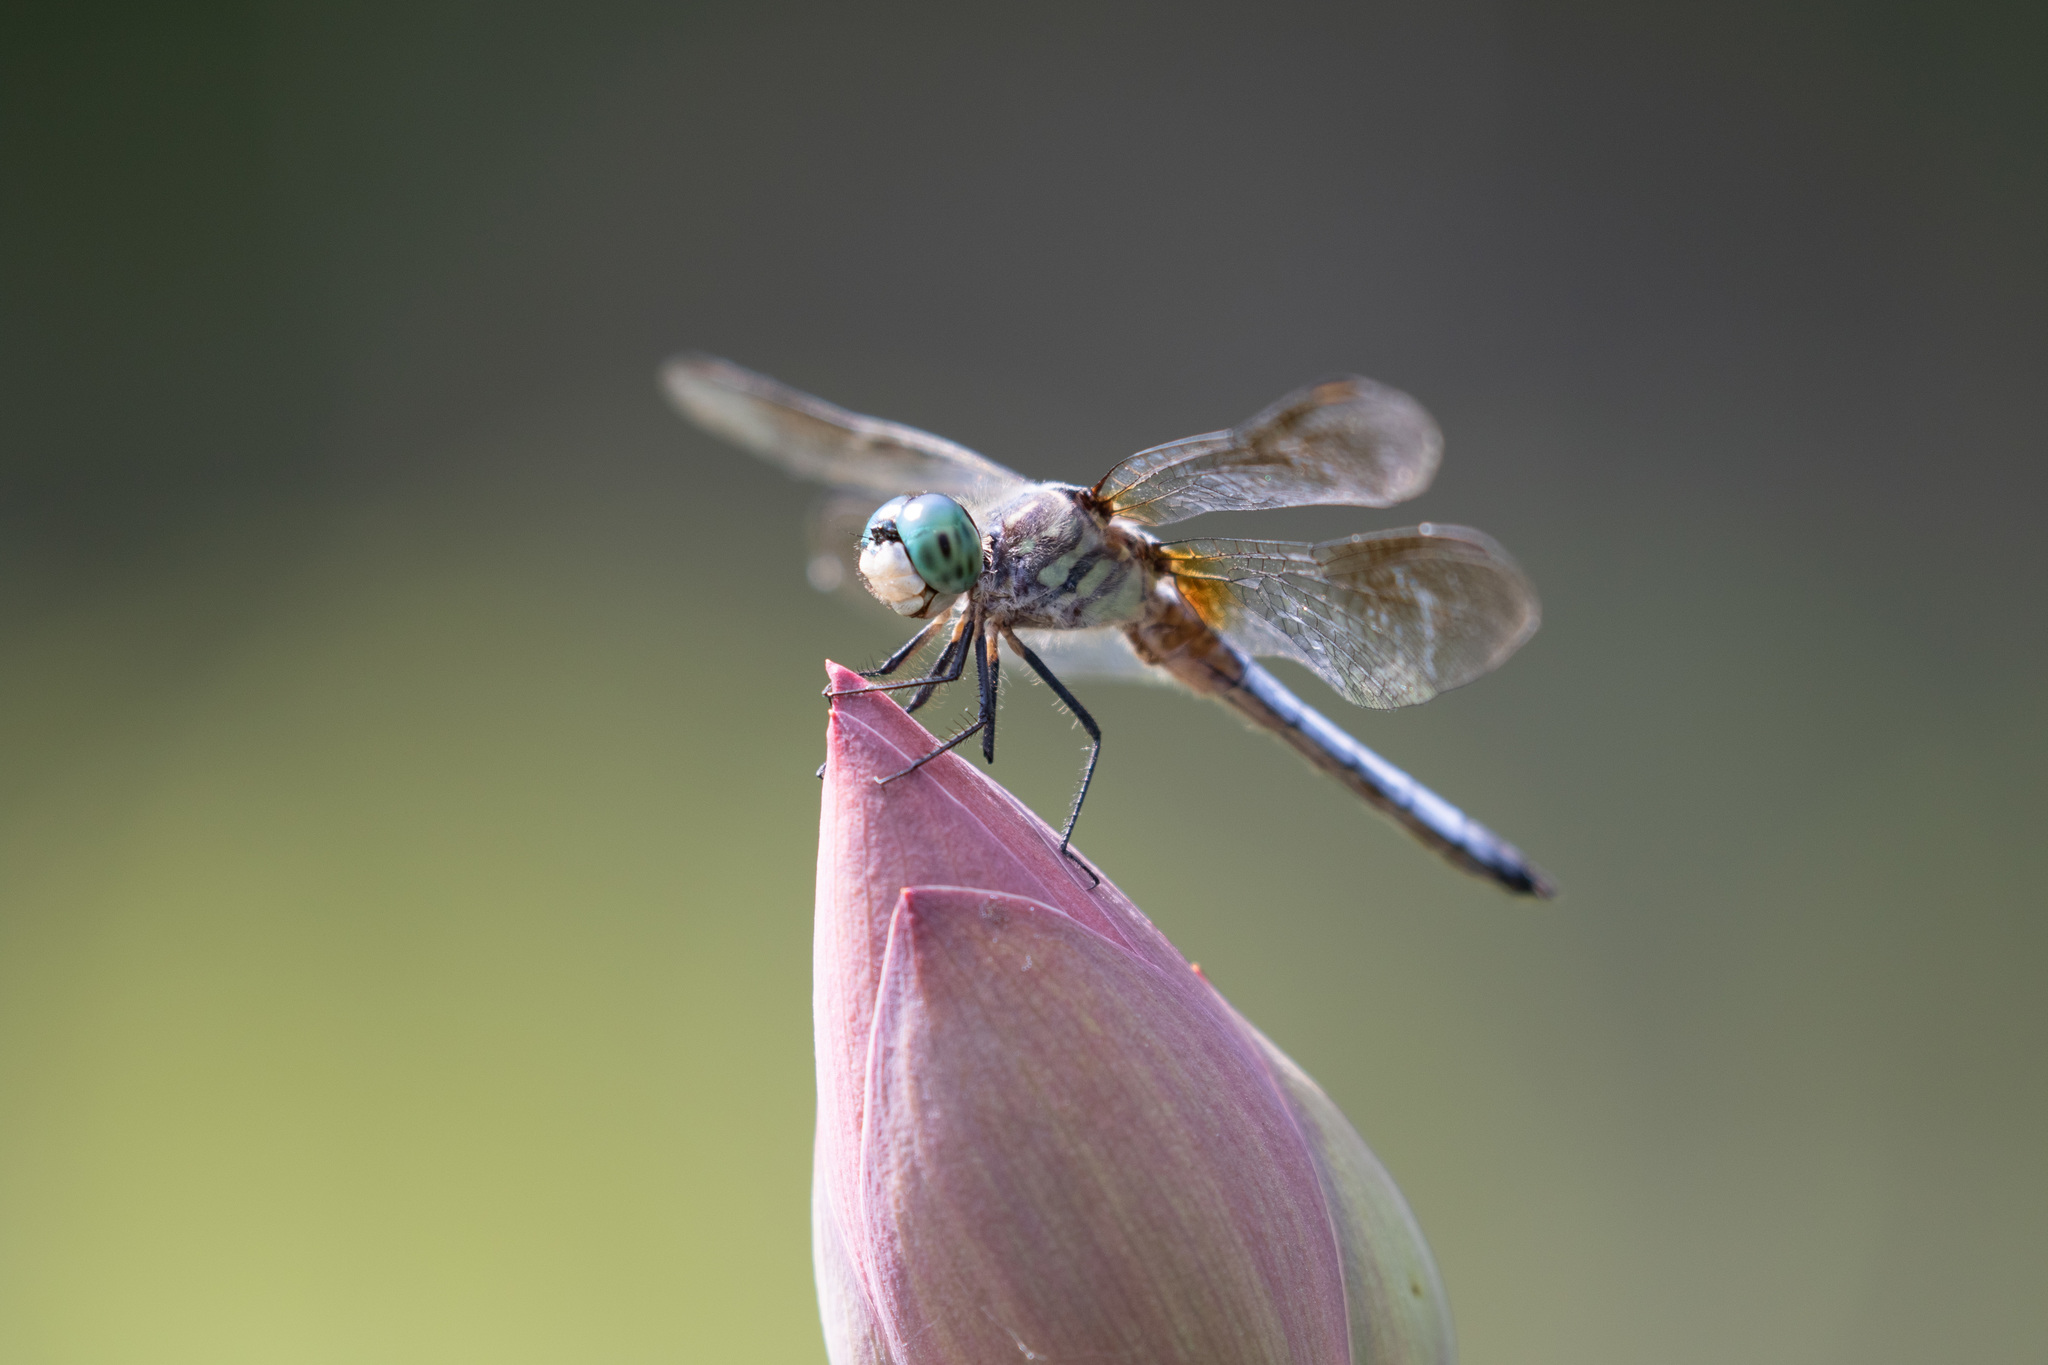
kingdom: Animalia
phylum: Arthropoda
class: Insecta
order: Odonata
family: Libellulidae
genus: Pachydiplax
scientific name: Pachydiplax longipennis
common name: Blue dasher
